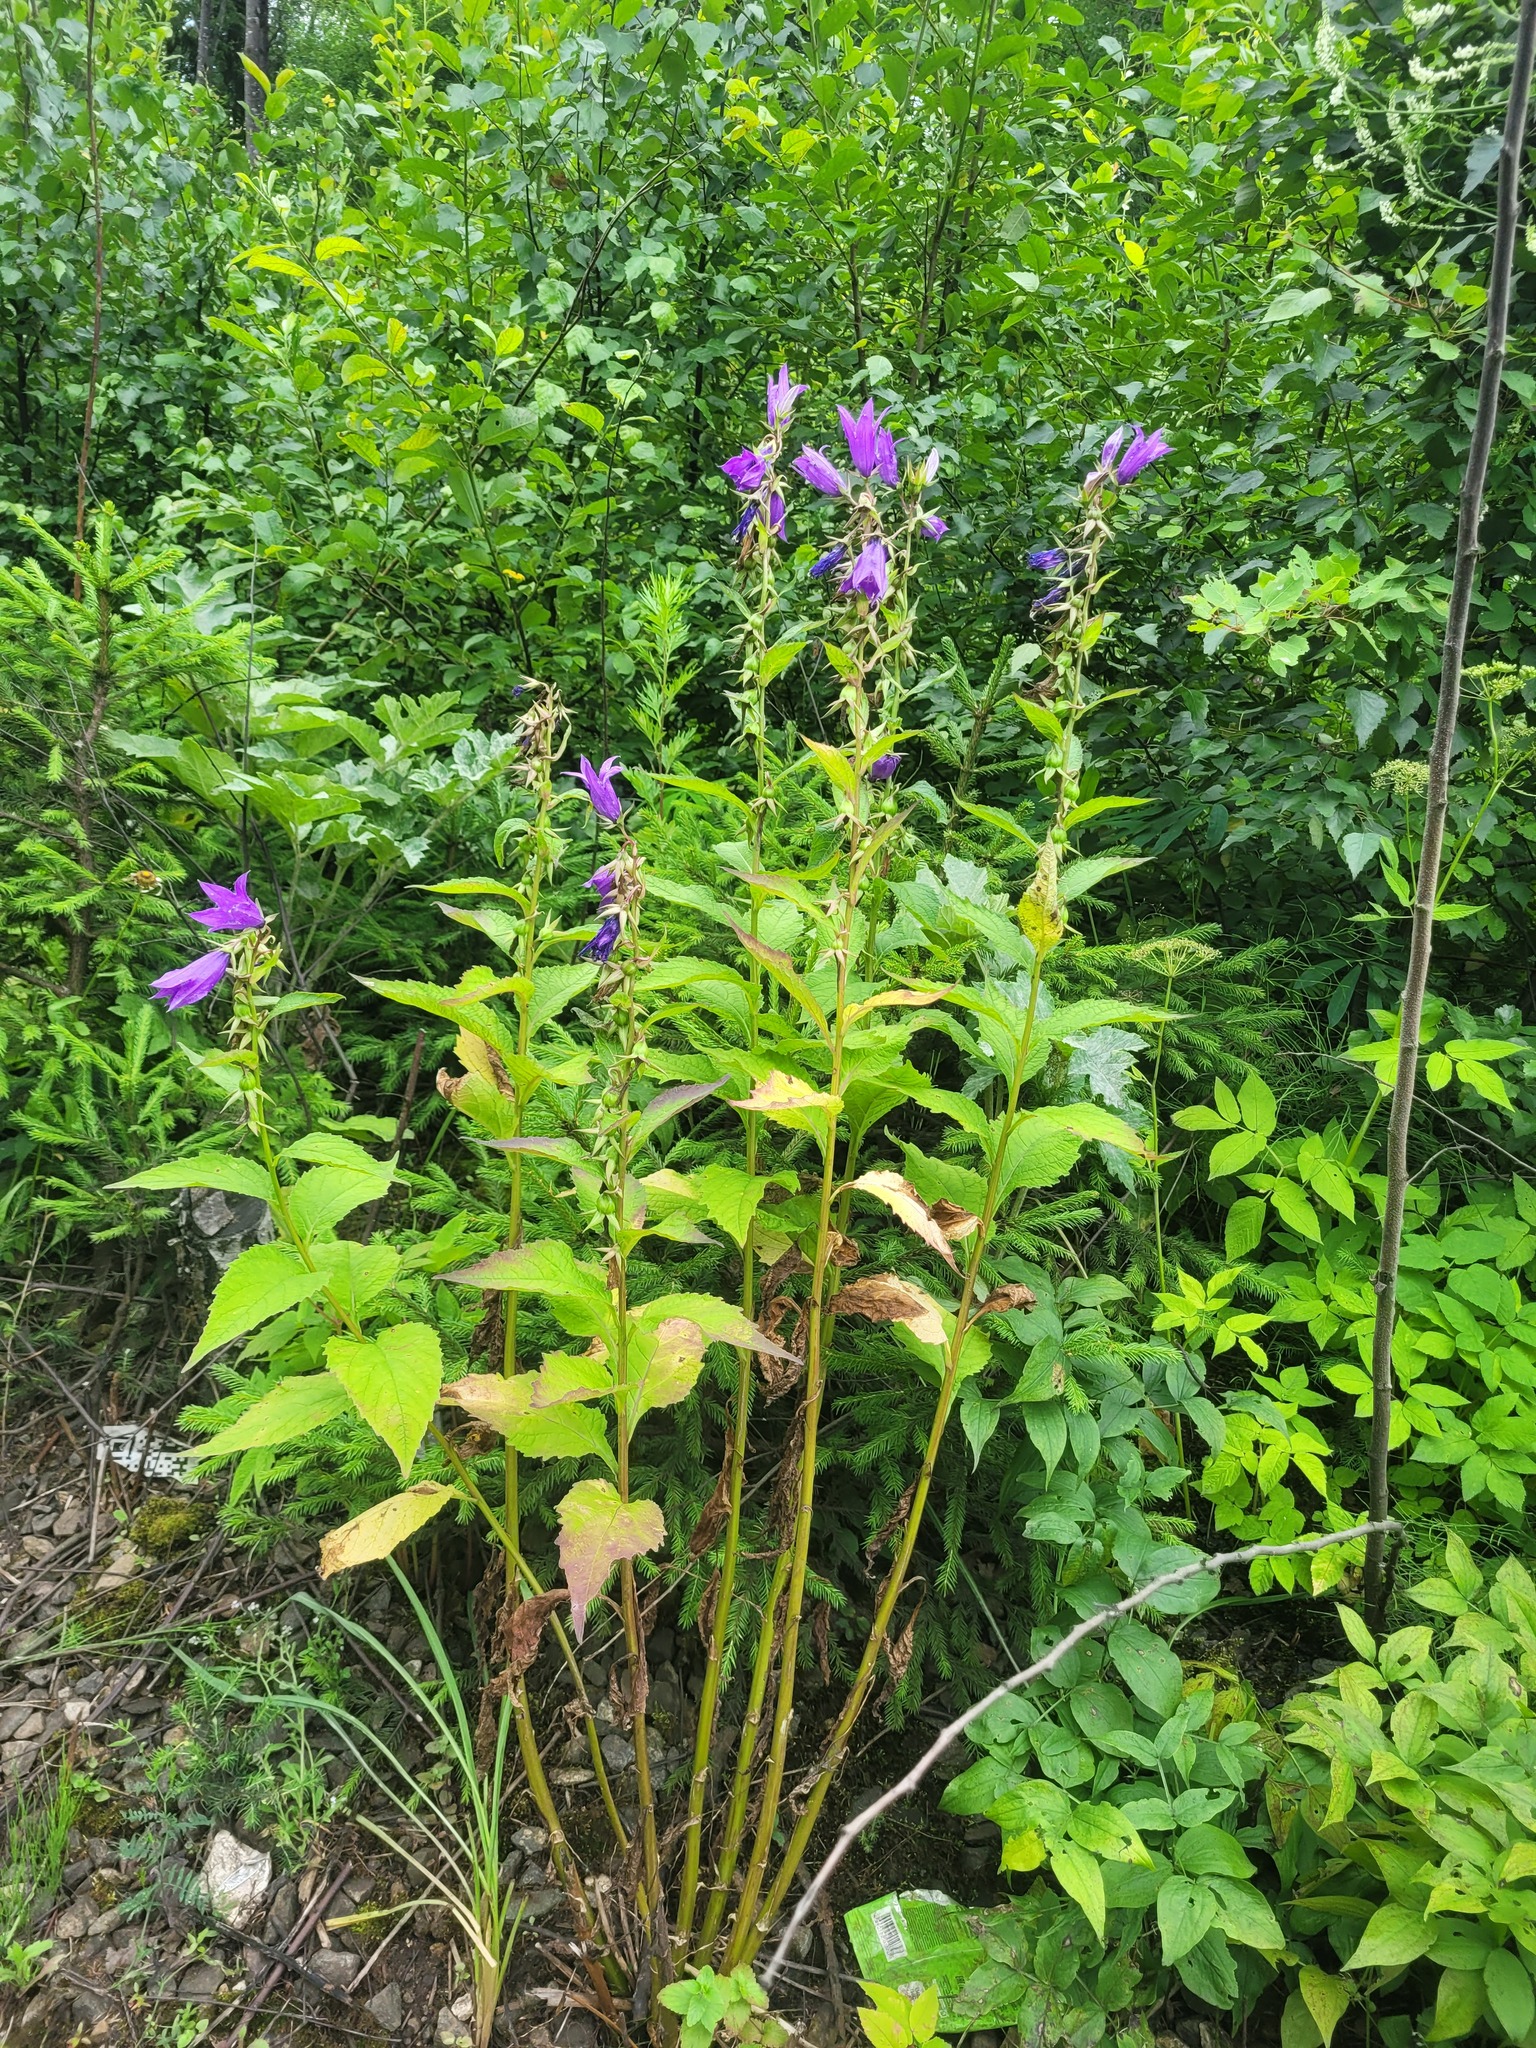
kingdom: Plantae
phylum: Tracheophyta
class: Magnoliopsida
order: Asterales
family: Campanulaceae
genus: Campanula
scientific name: Campanula latifolia
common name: Giant bellflower
